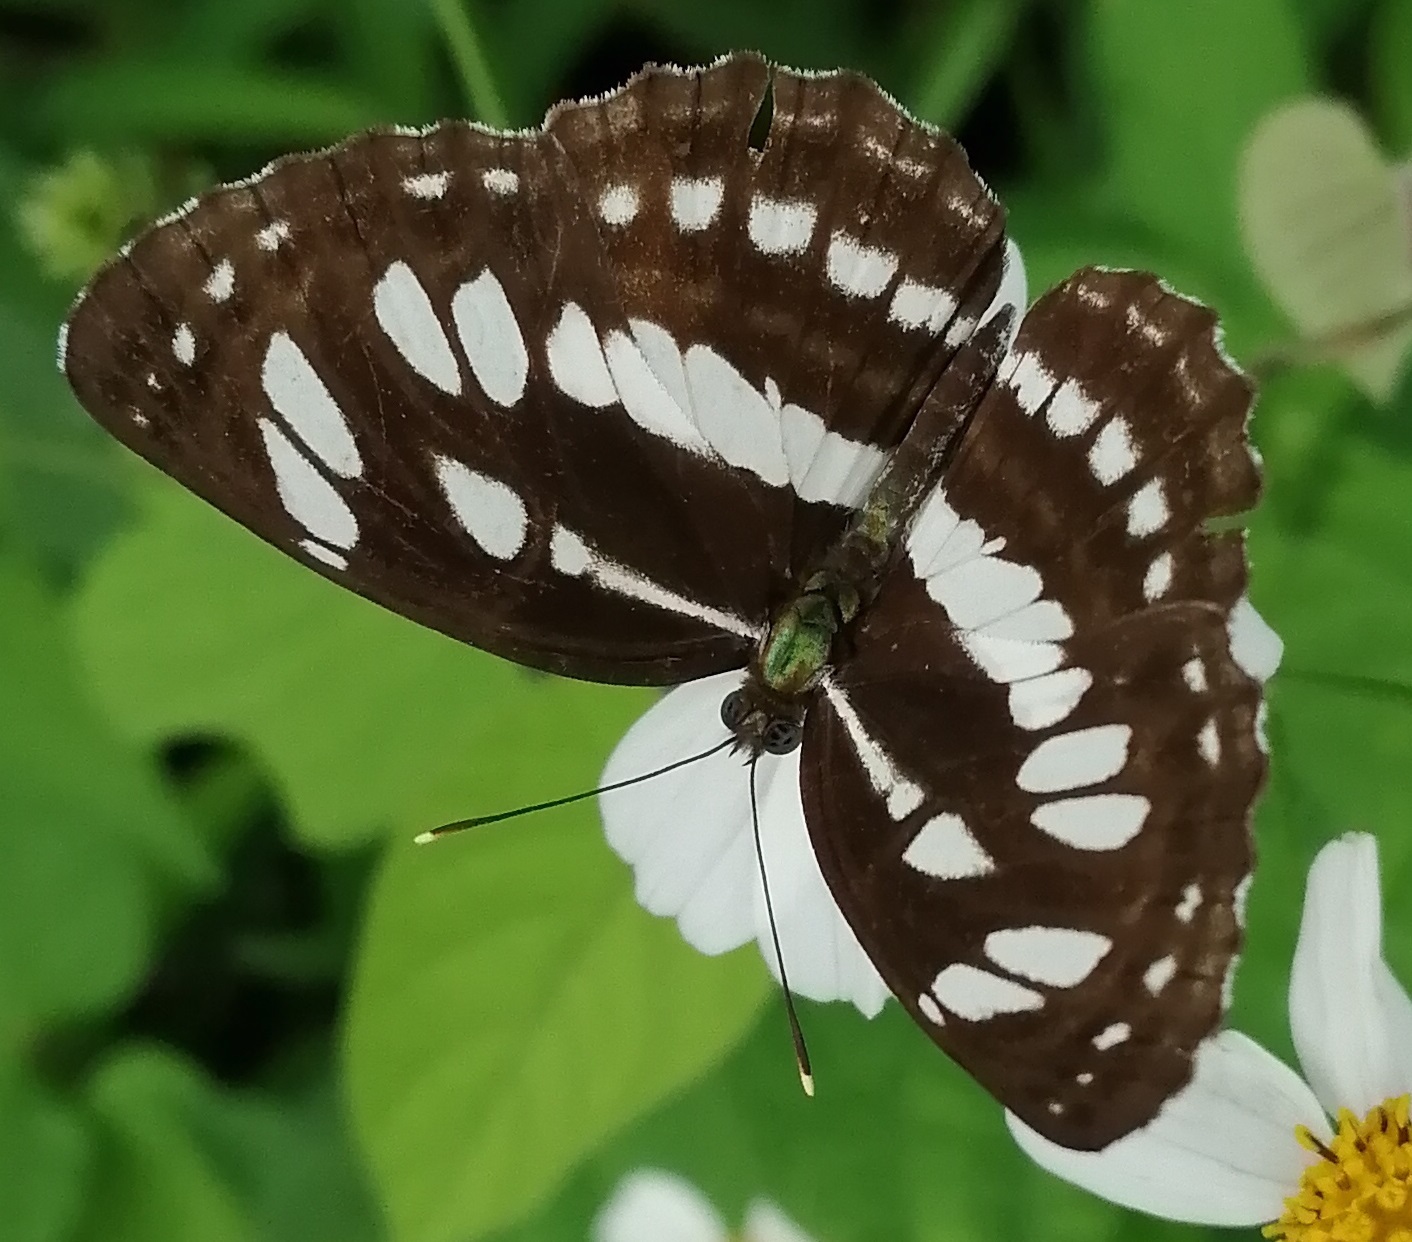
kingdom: Animalia
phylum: Arthropoda
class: Insecta
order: Lepidoptera
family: Nymphalidae
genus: Neptis
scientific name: Neptis hylas
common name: Common sailer
